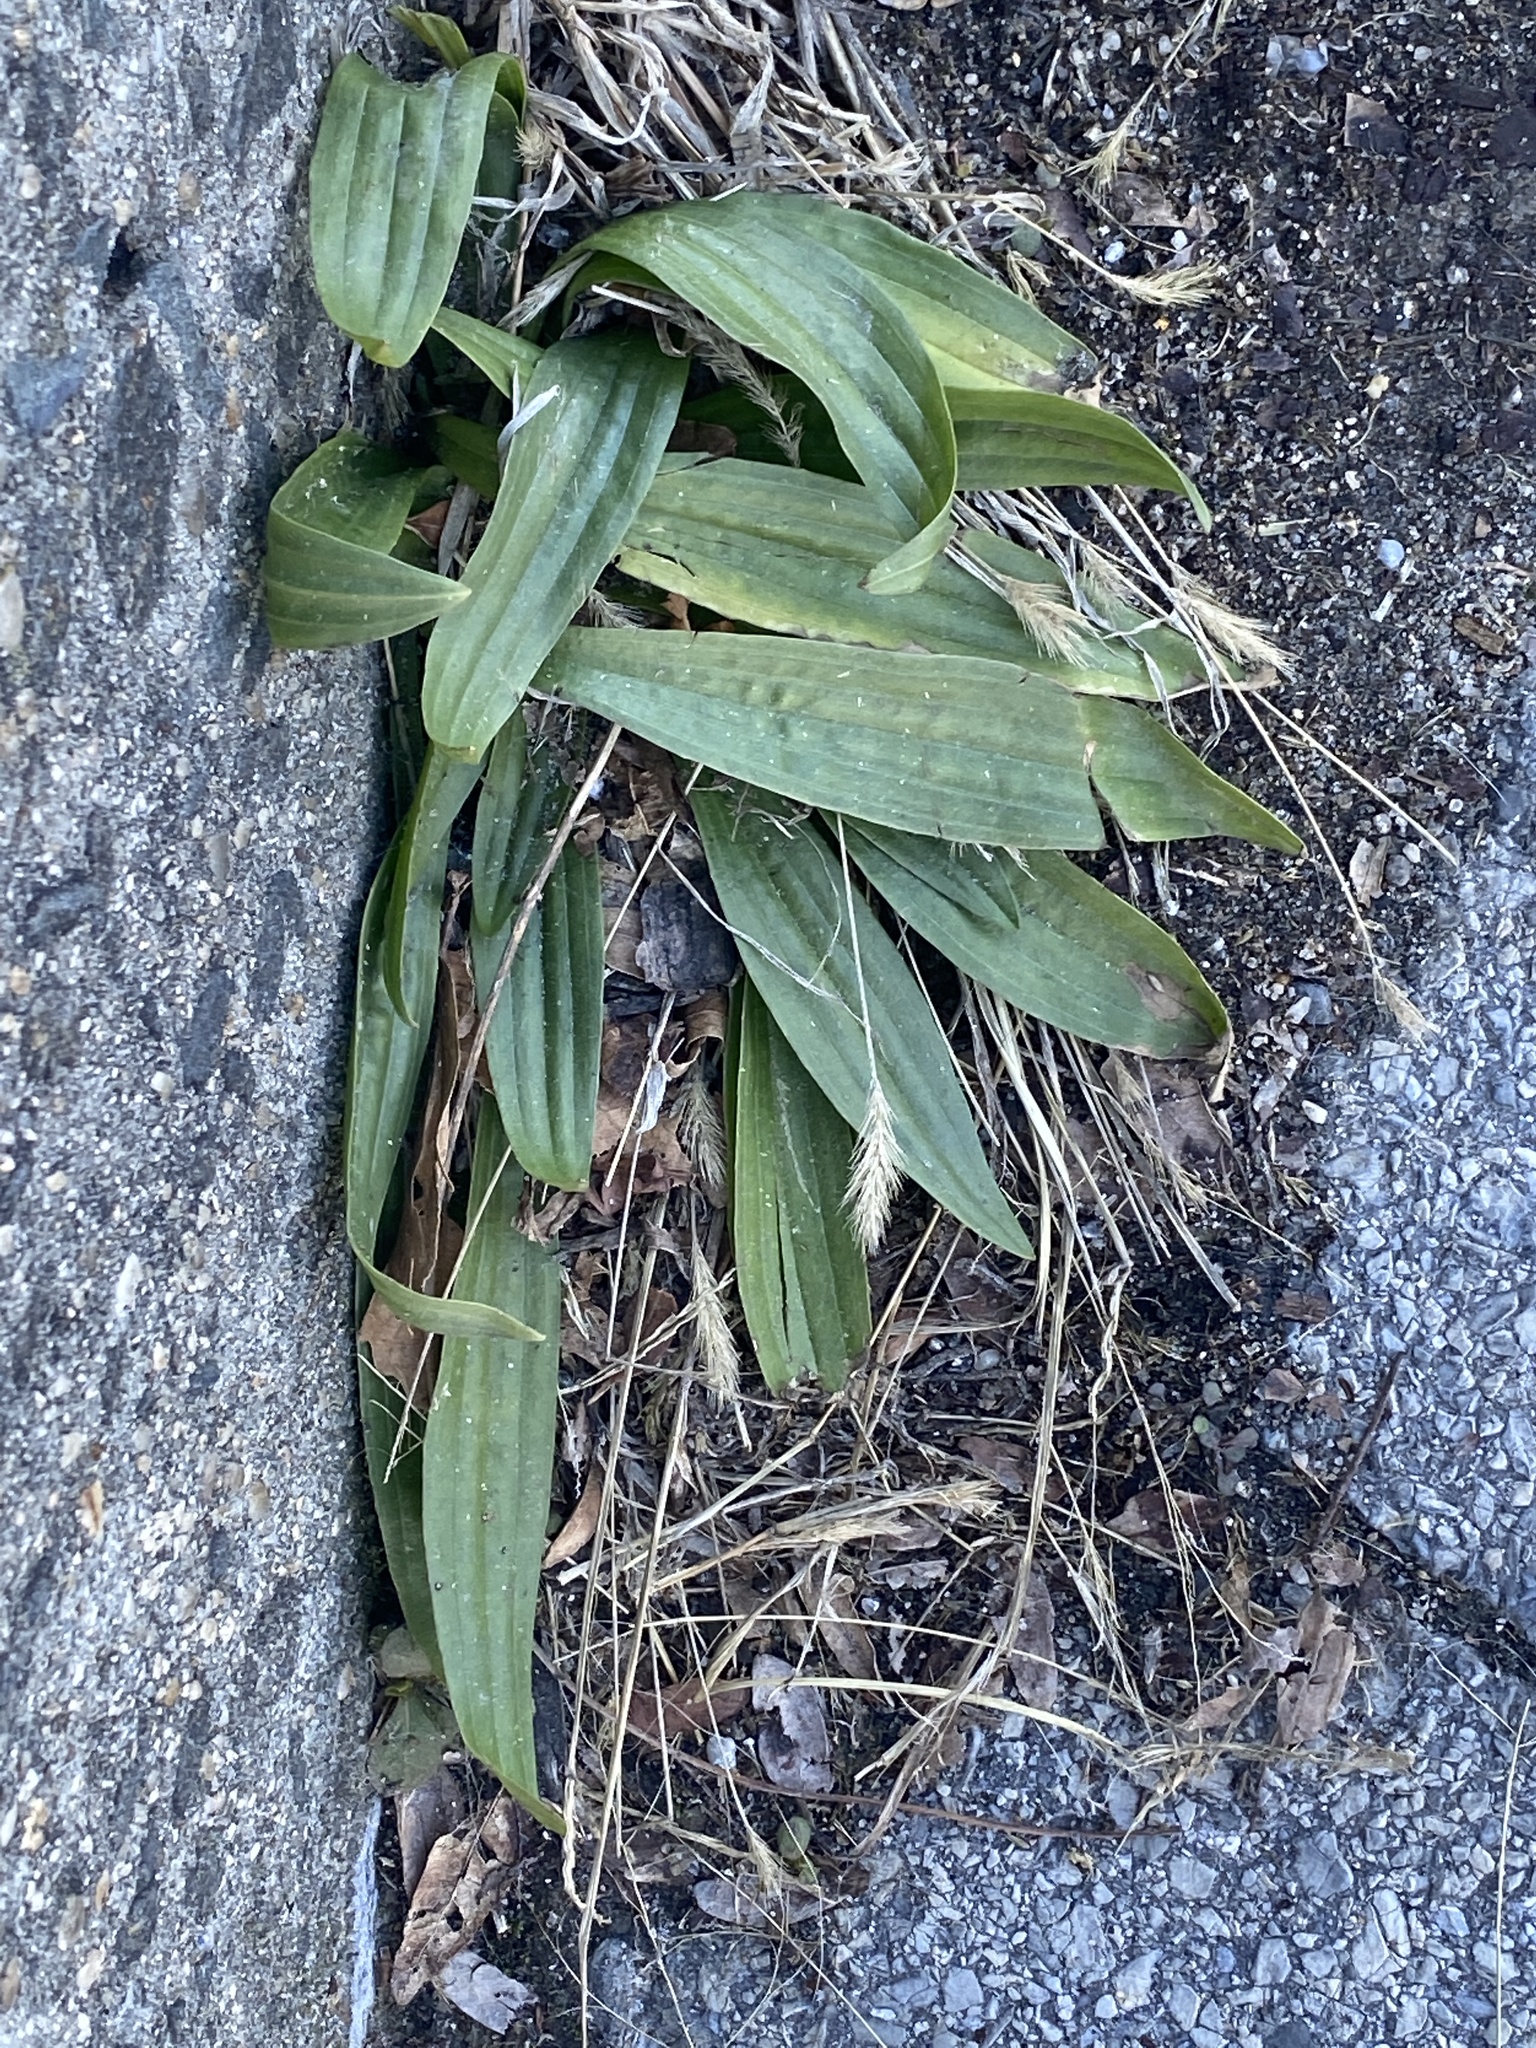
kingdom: Plantae
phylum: Tracheophyta
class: Magnoliopsida
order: Lamiales
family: Plantaginaceae
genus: Plantago
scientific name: Plantago lanceolata
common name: Ribwort plantain
